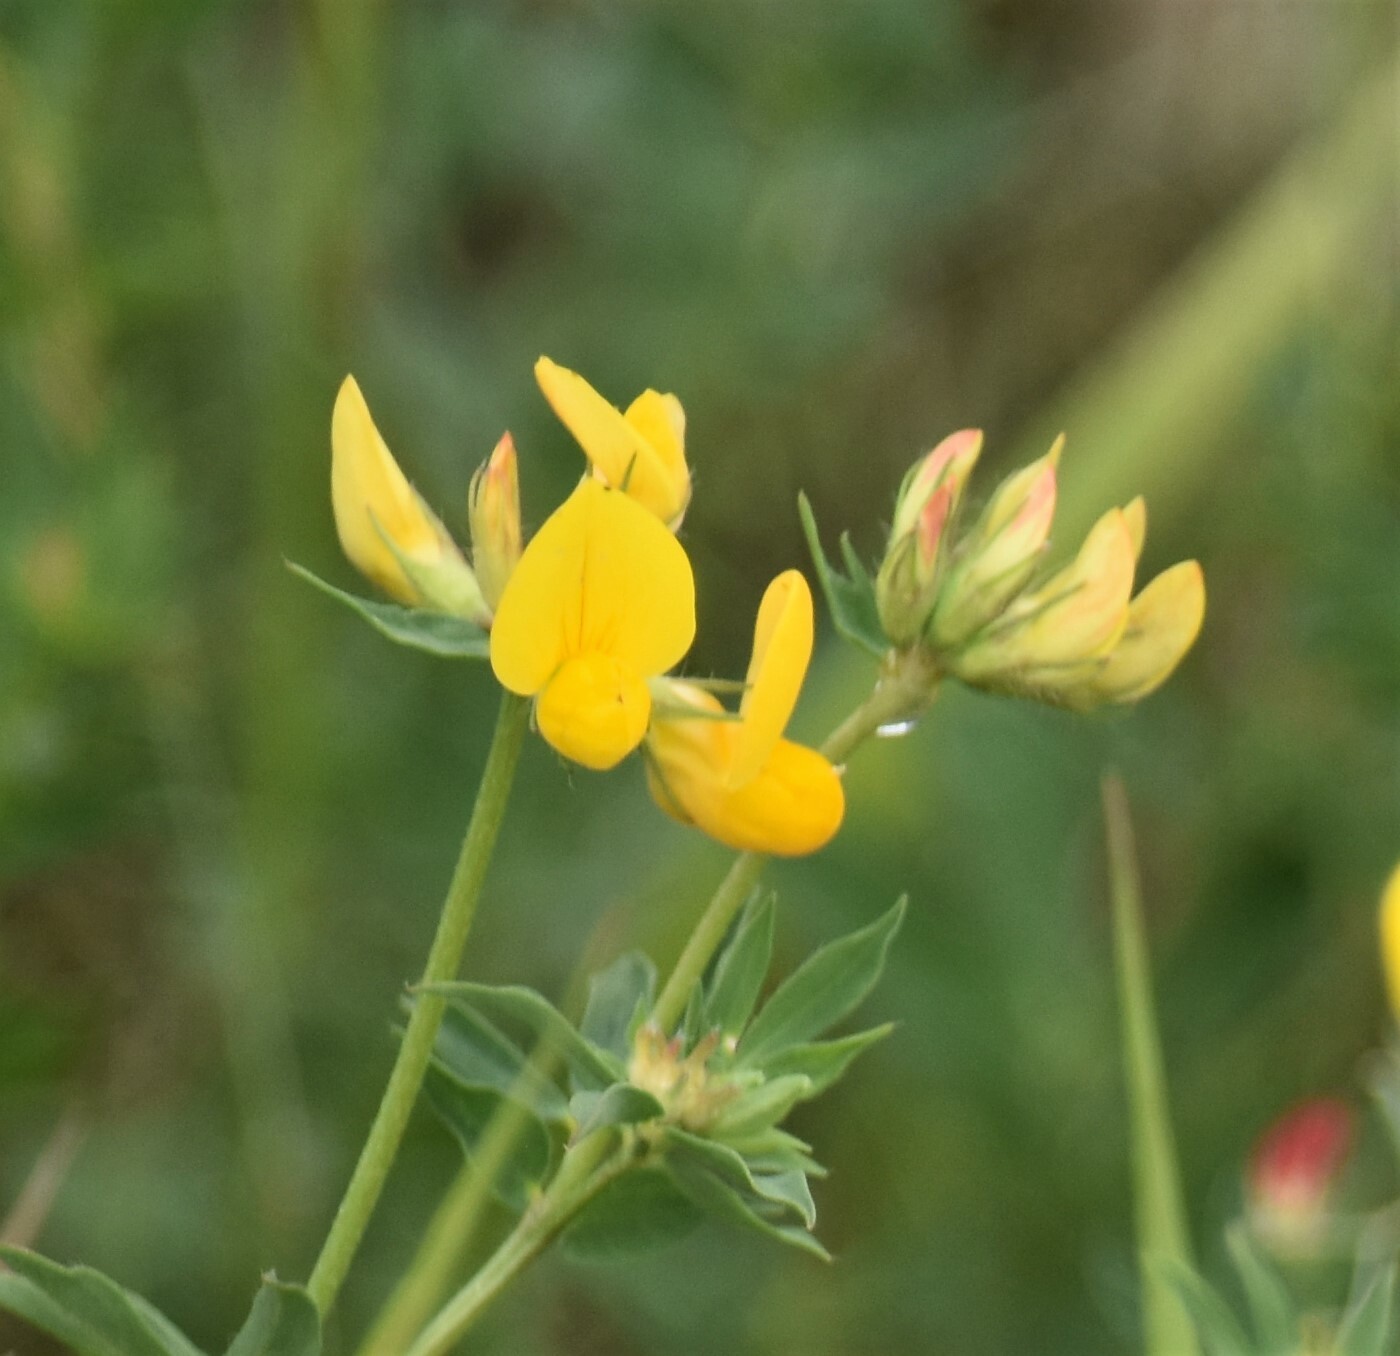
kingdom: Plantae
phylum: Tracheophyta
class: Magnoliopsida
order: Fabales
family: Fabaceae
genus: Lotus
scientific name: Lotus corniculatus
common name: Common bird's-foot-trefoil
